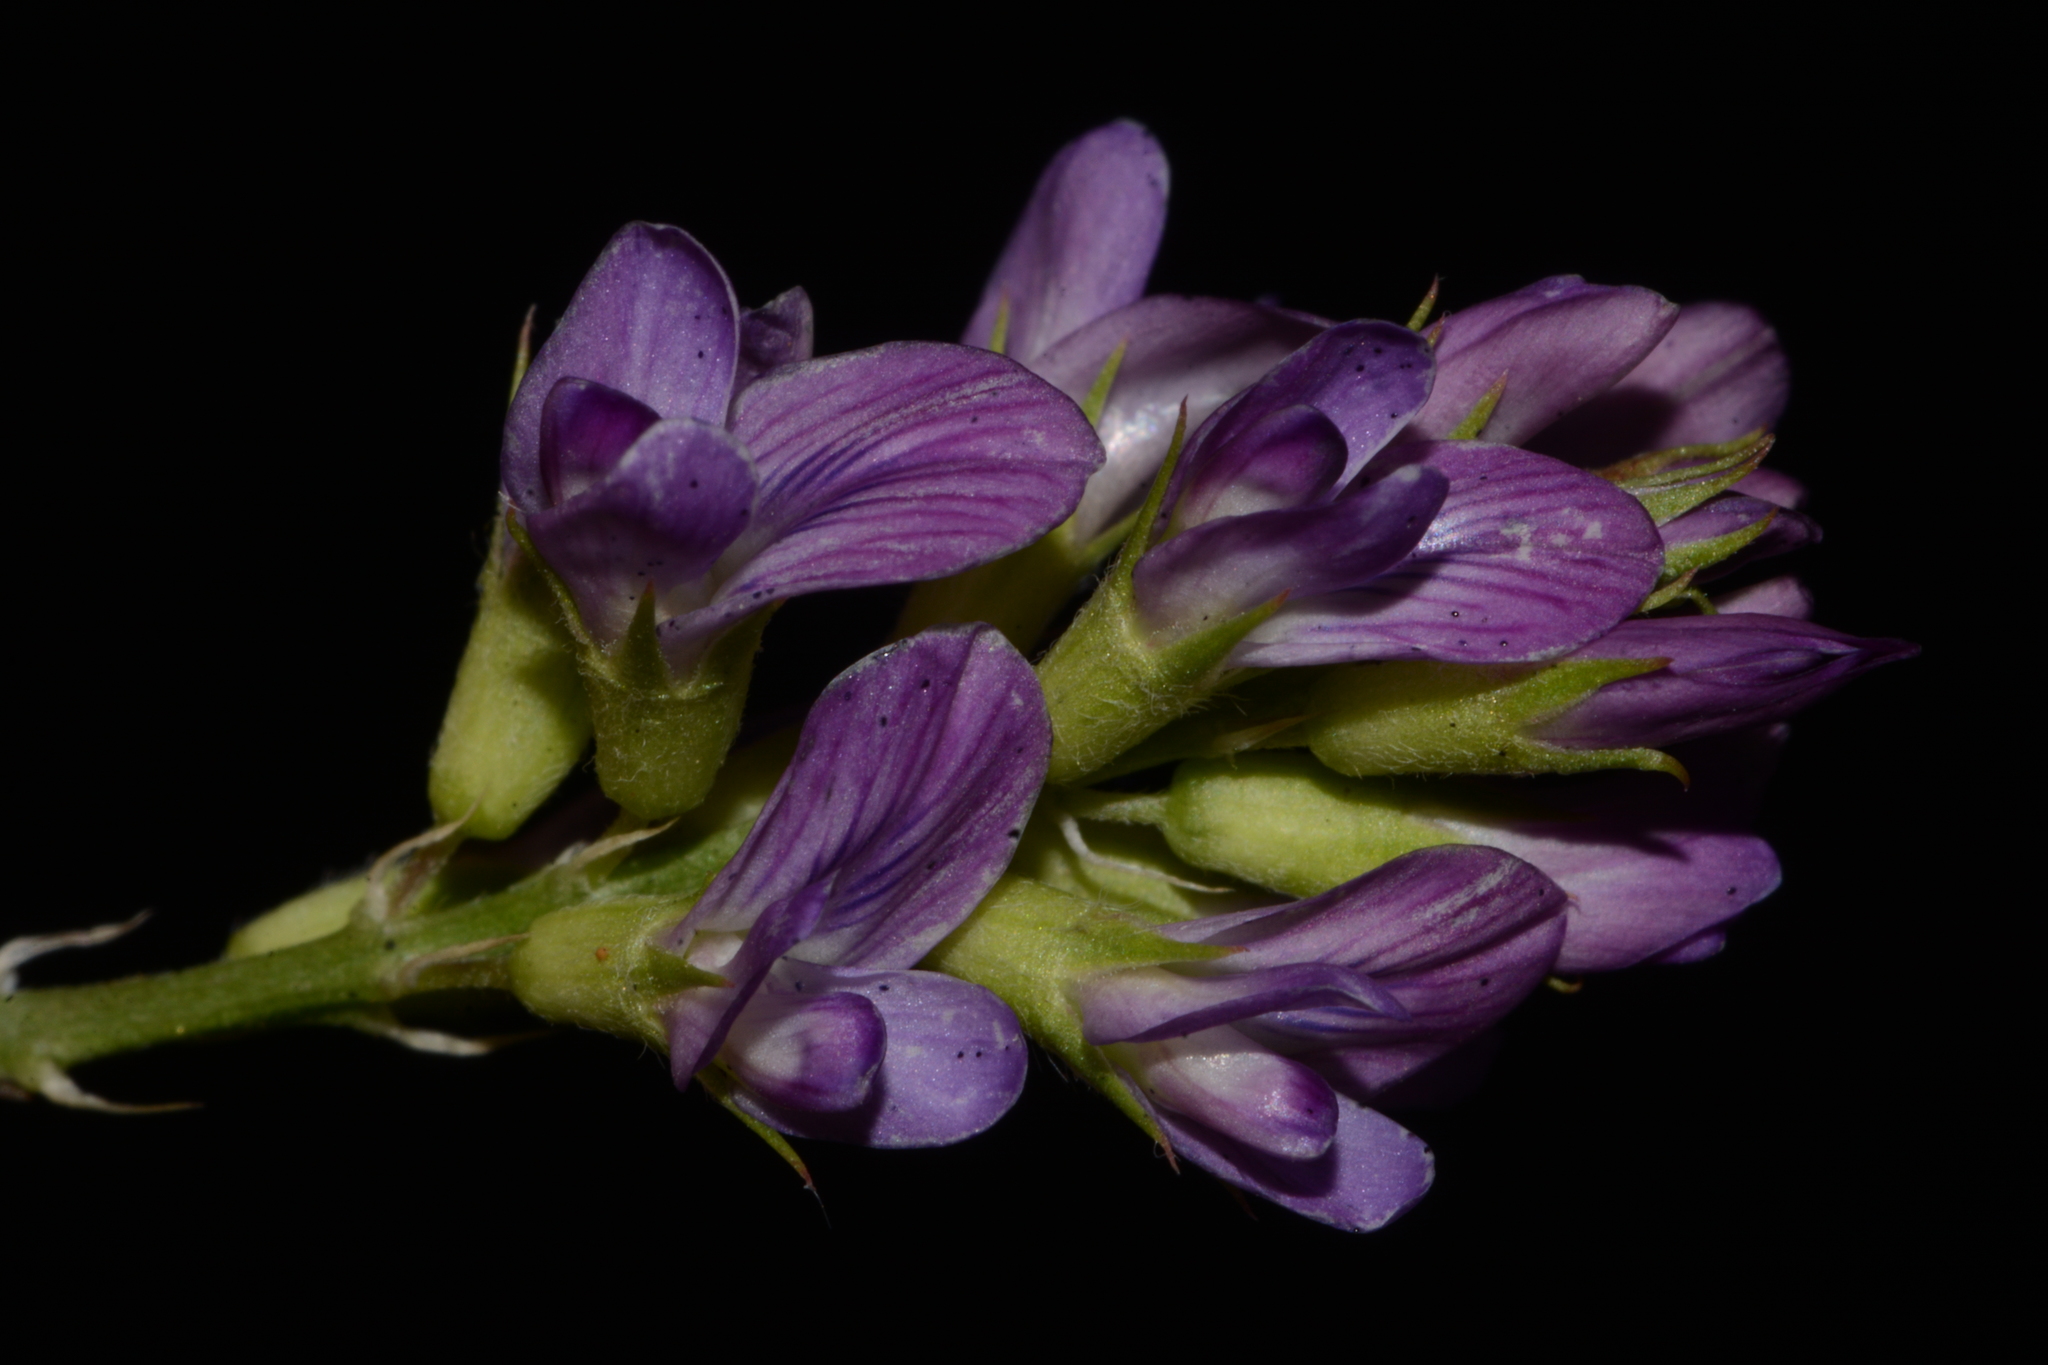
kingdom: Plantae
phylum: Tracheophyta
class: Magnoliopsida
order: Fabales
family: Fabaceae
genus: Medicago
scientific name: Medicago sativa
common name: Alfalfa
